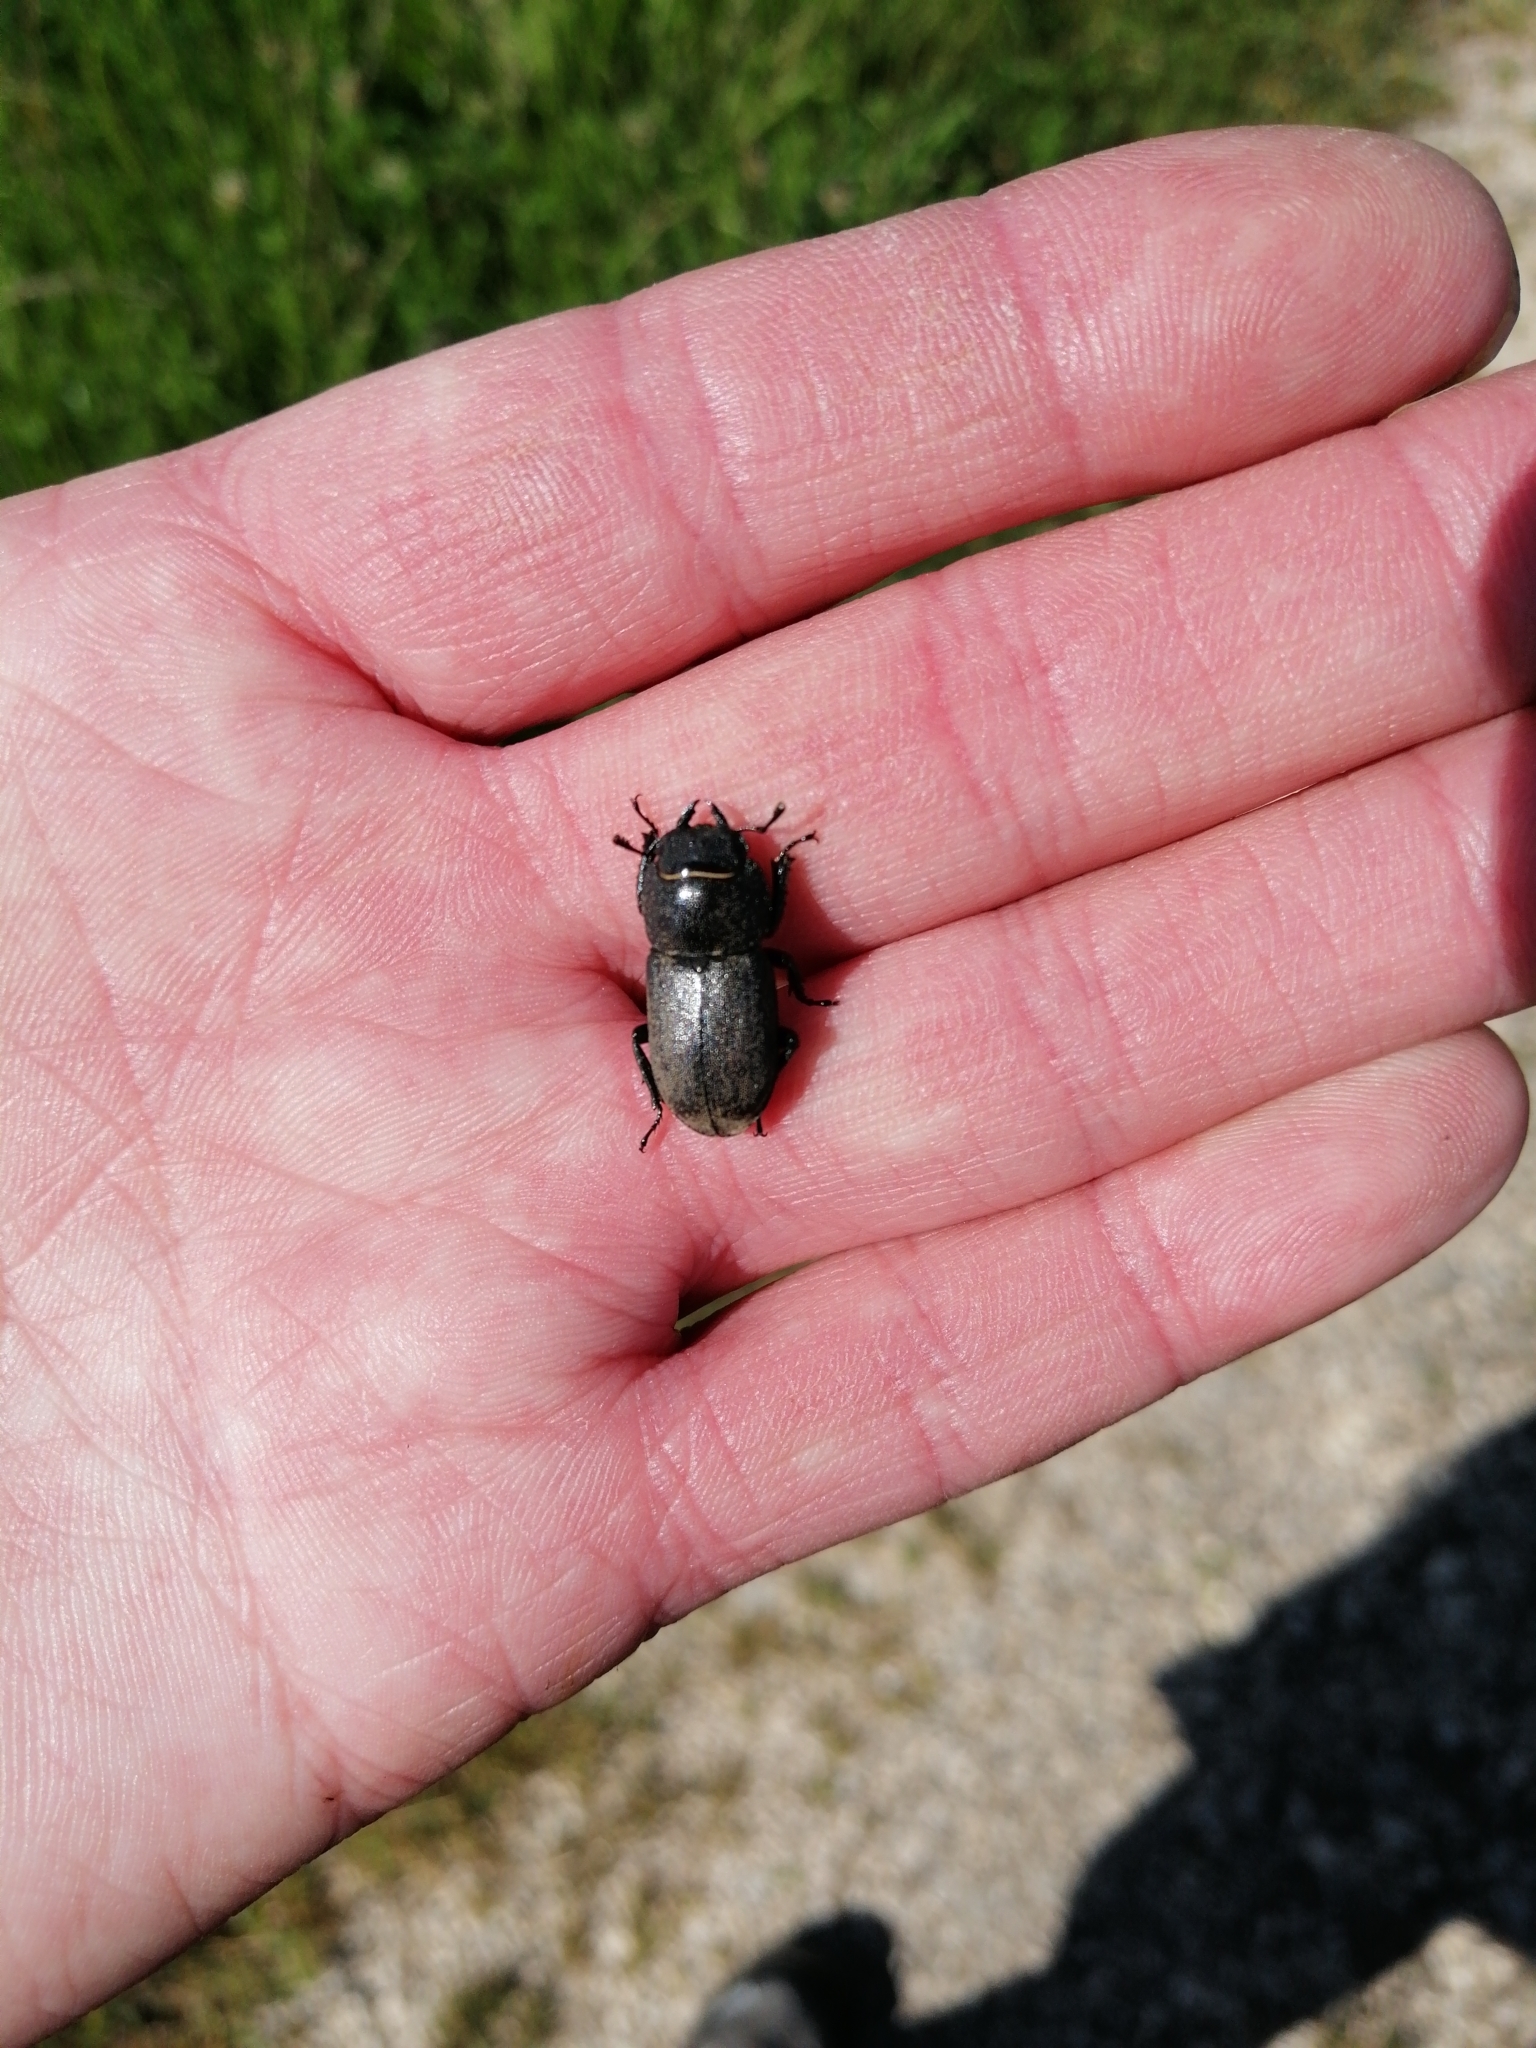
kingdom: Animalia
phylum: Arthropoda
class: Insecta
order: Coleoptera
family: Lucanidae
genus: Dorcus
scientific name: Dorcus parallelipipedus
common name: Lesser stag beetle
